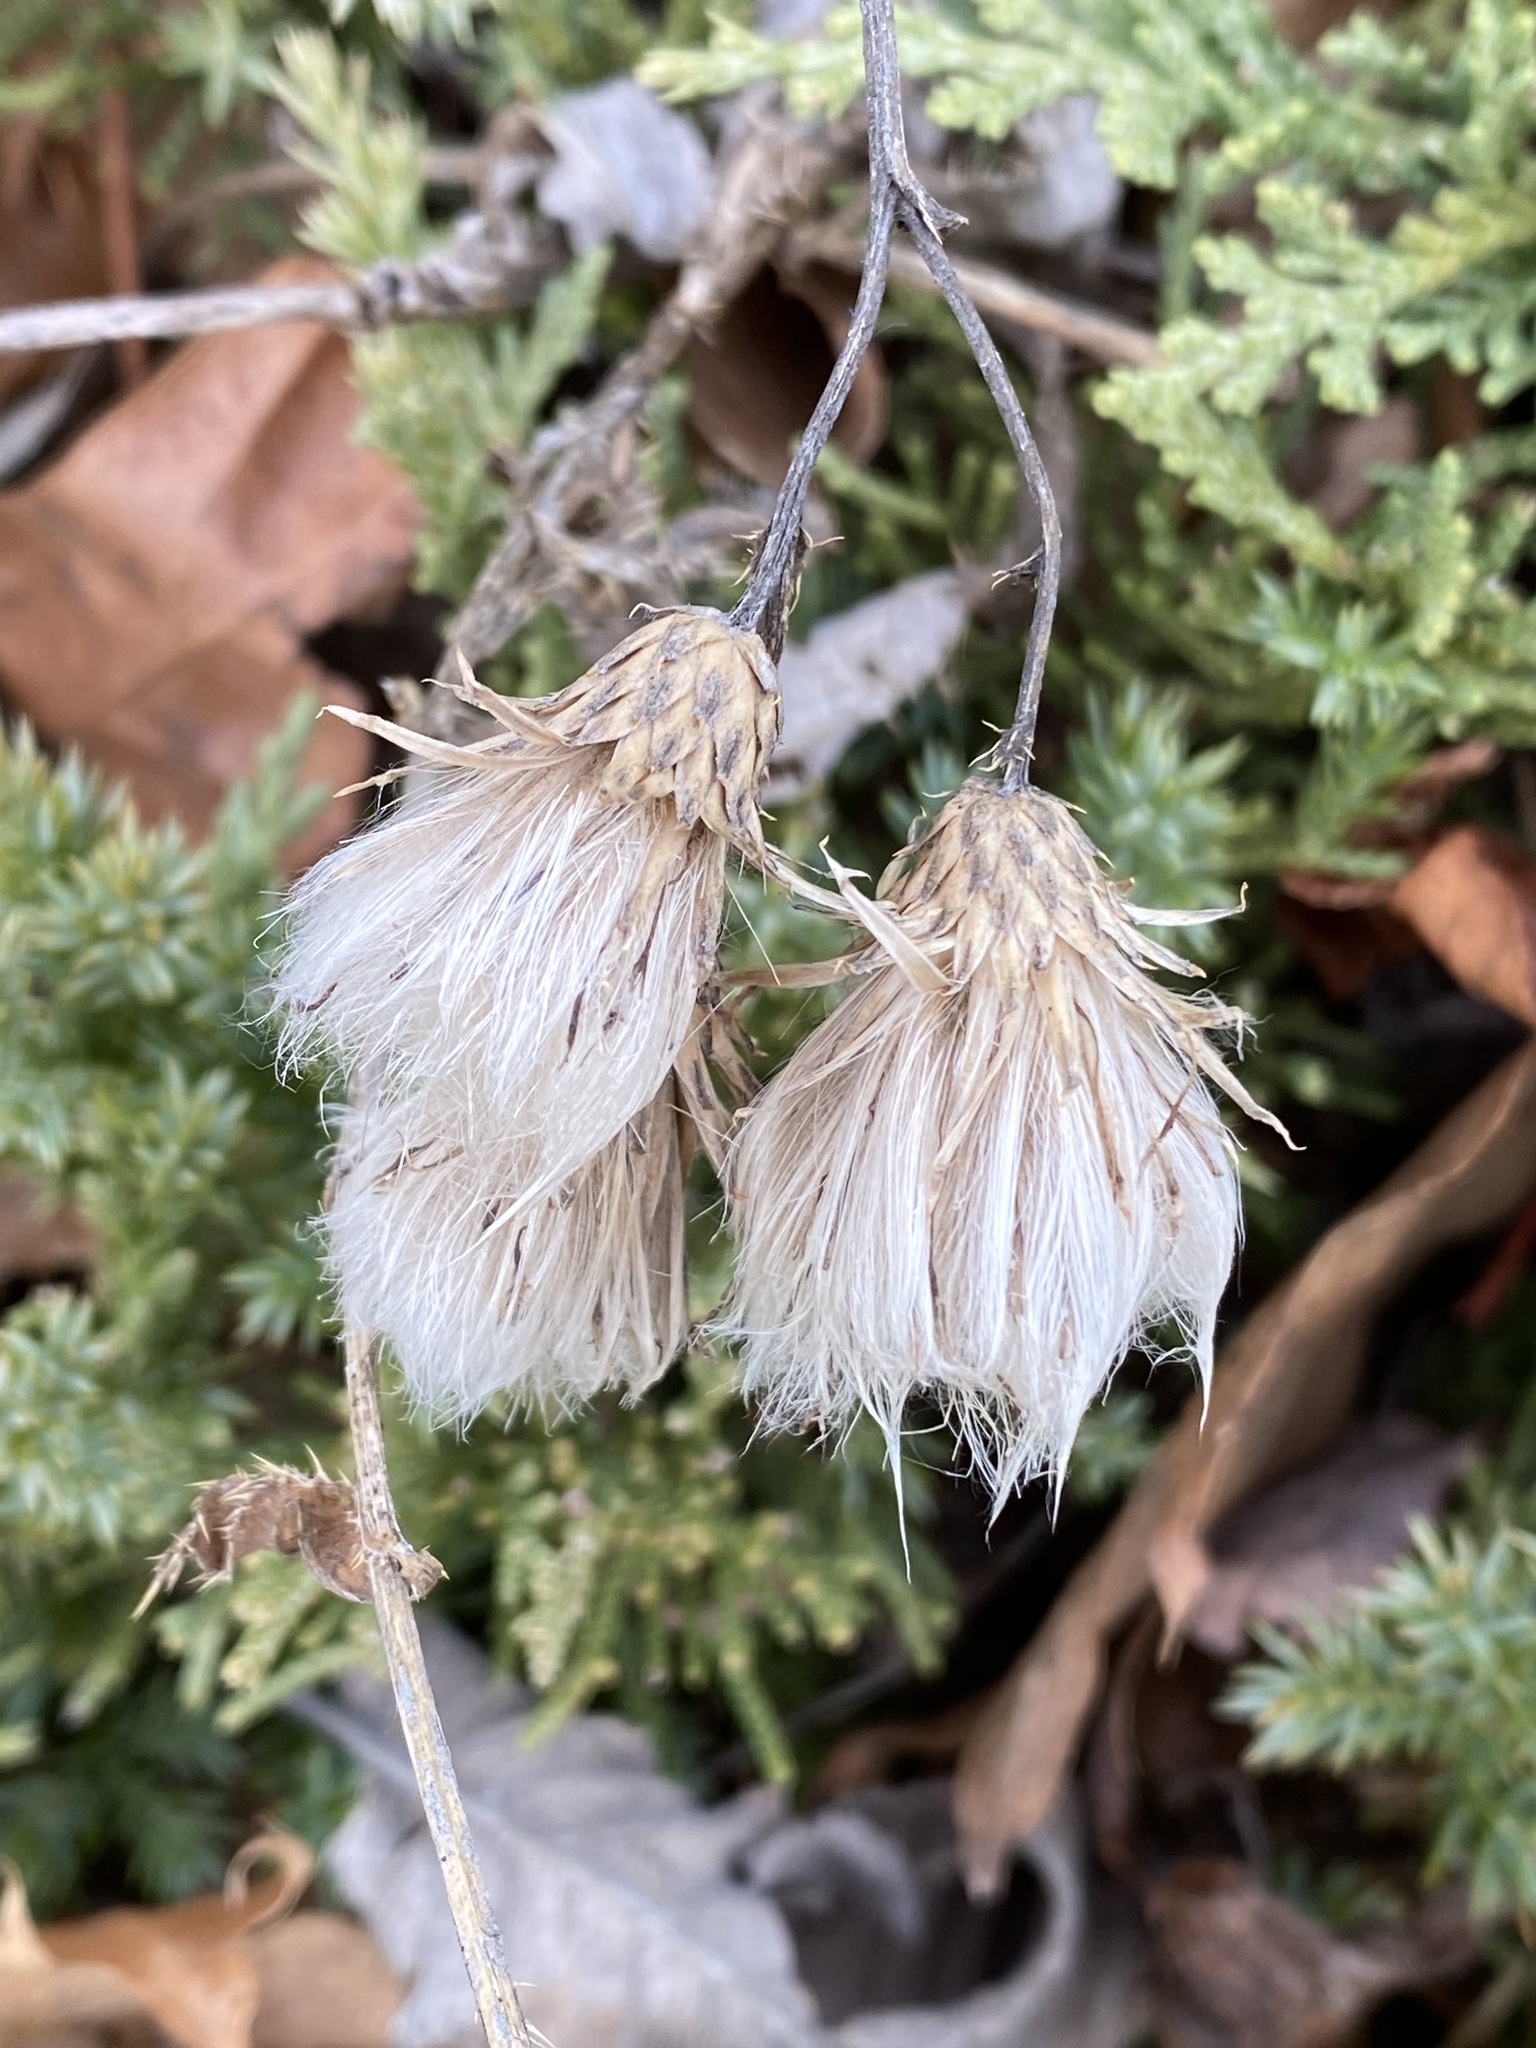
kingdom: Plantae
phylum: Tracheophyta
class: Magnoliopsida
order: Asterales
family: Asteraceae
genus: Cirsium
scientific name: Cirsium arvense
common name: Creeping thistle
